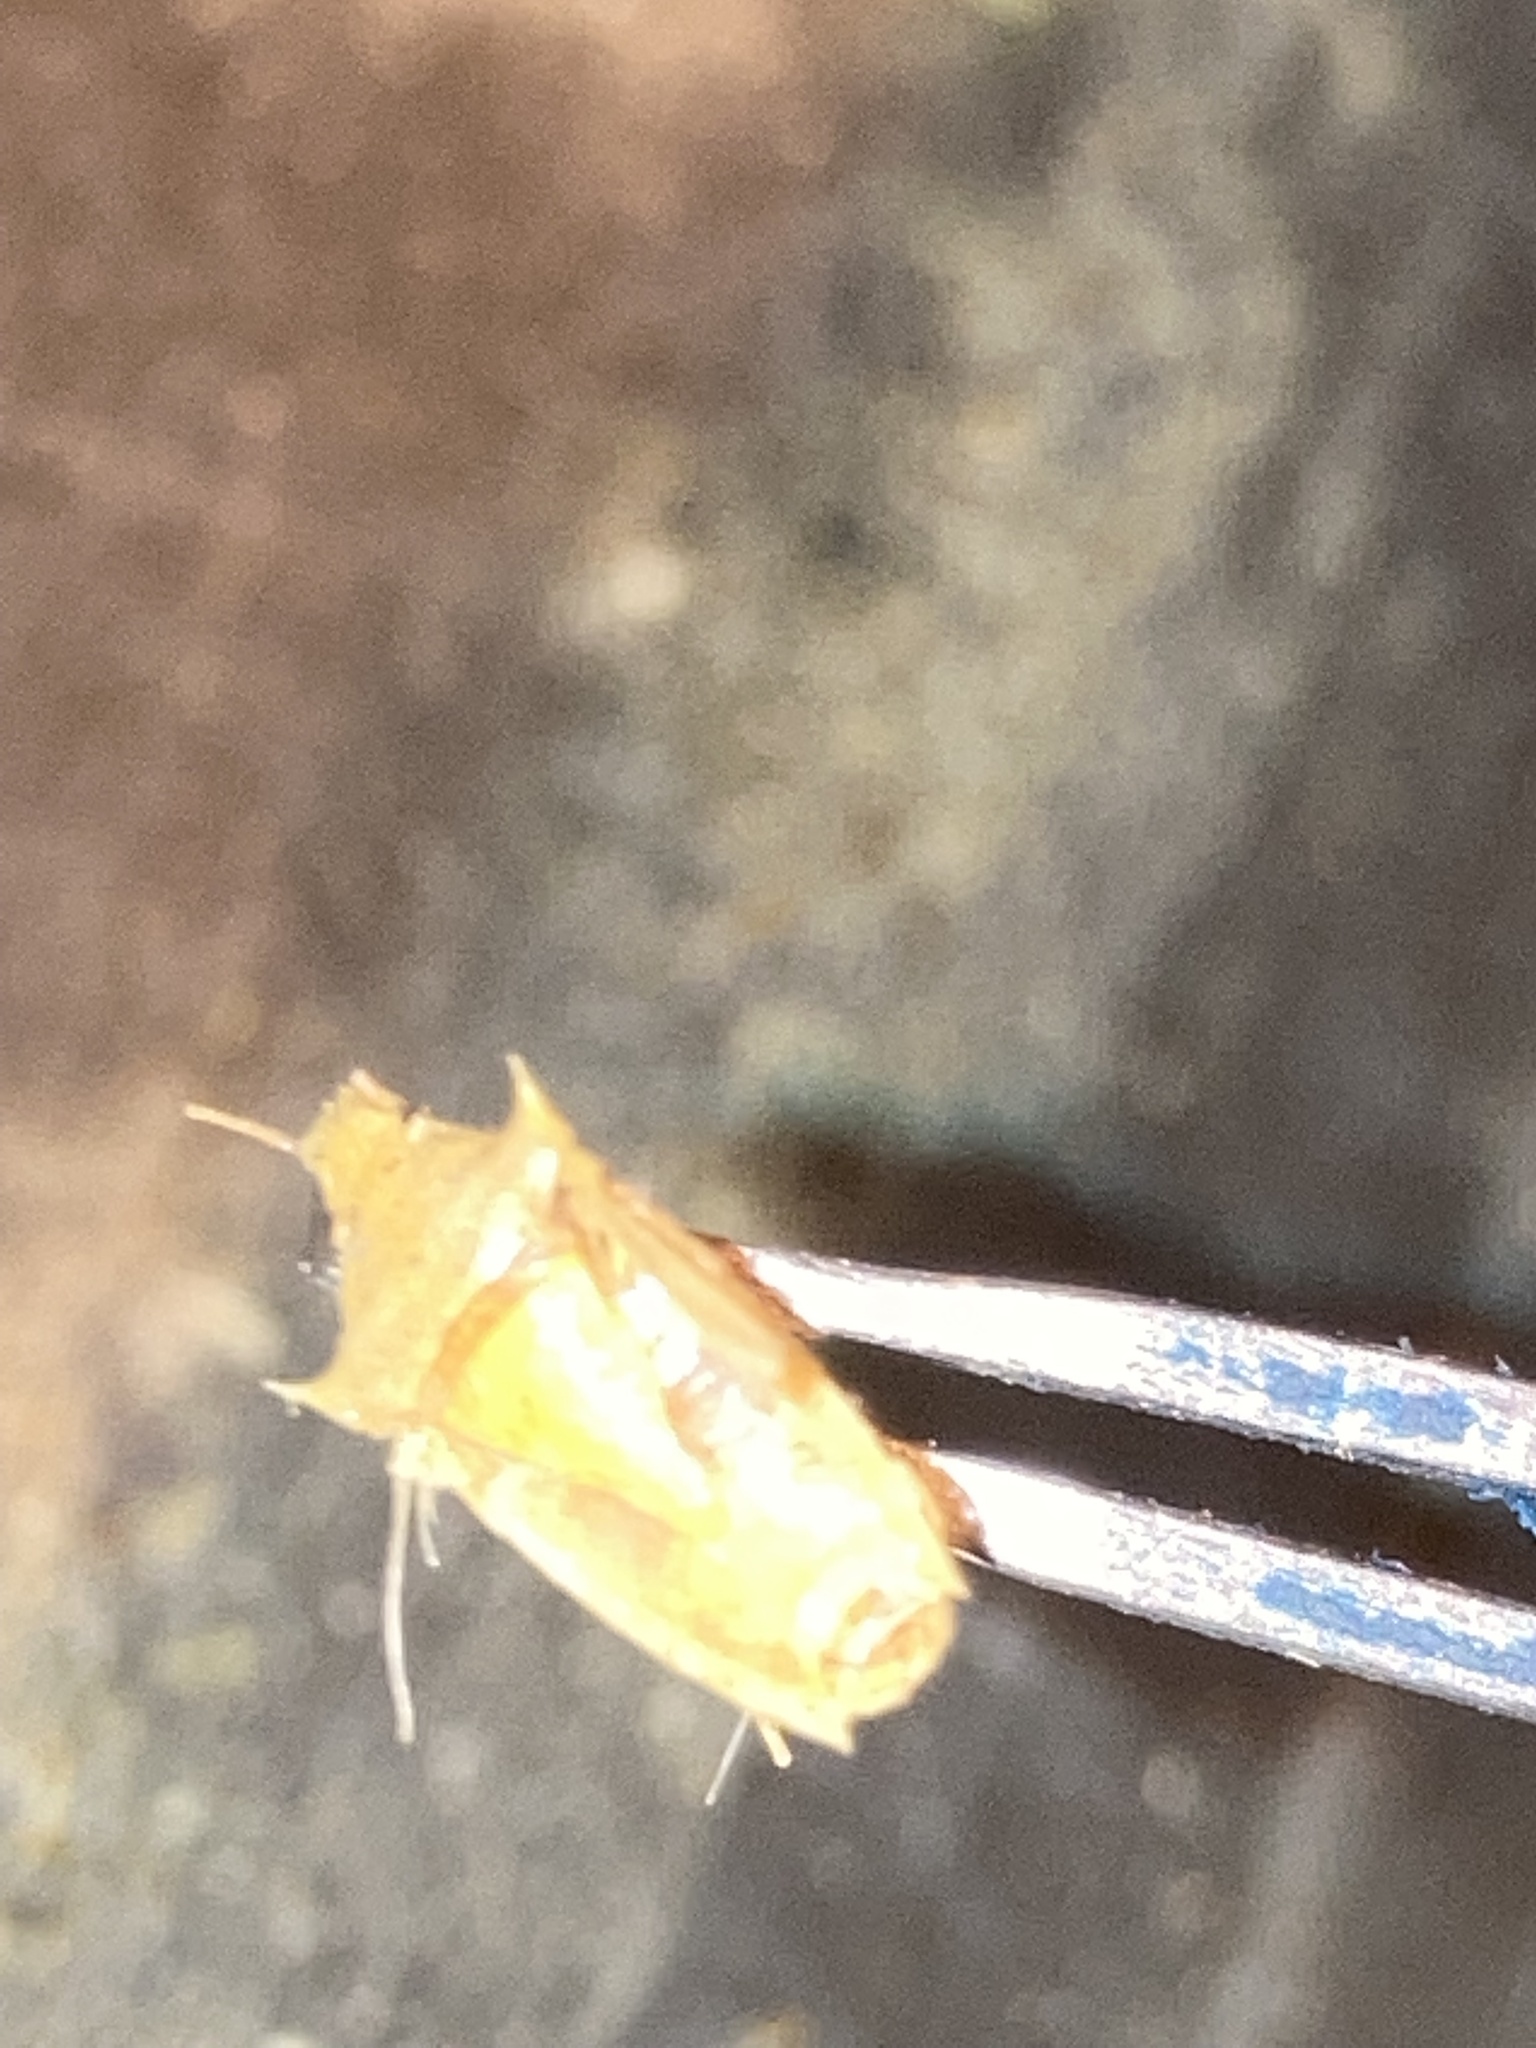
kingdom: Animalia
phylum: Arthropoda
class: Insecta
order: Hemiptera
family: Pentatomidae
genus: Oebalus
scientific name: Oebalus pugnax
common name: Rice stink bug
